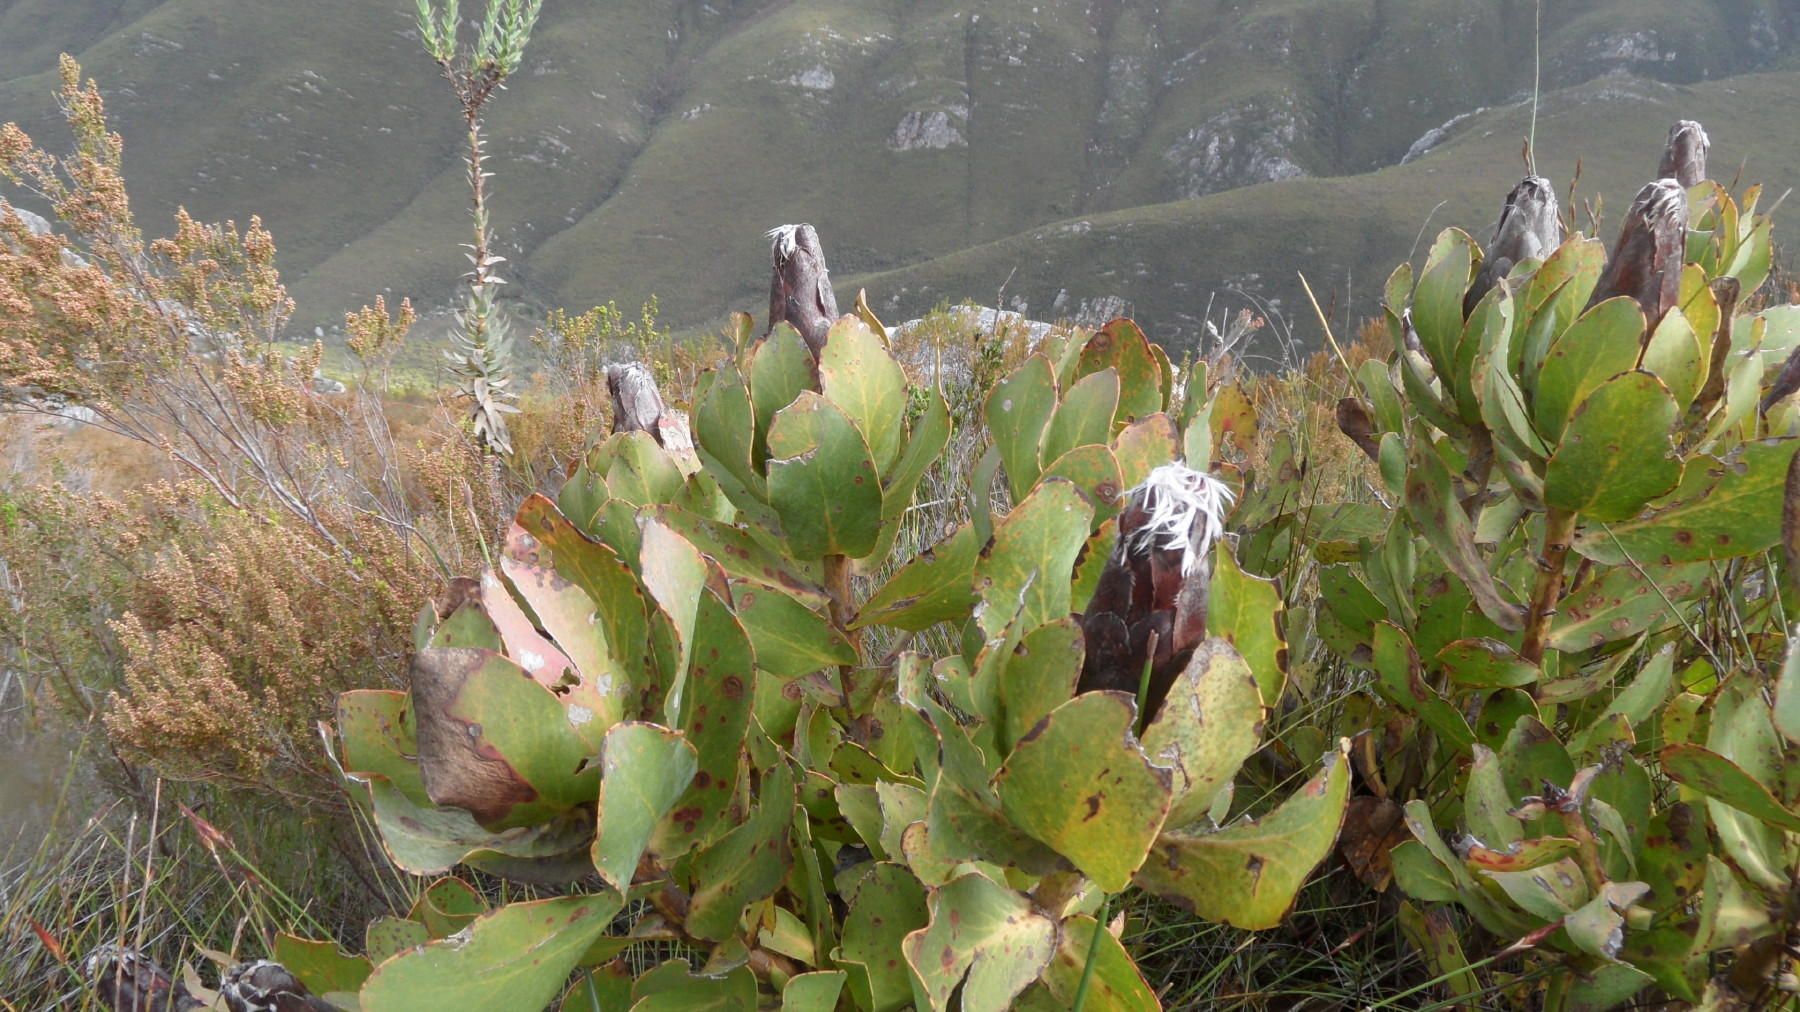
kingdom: Plantae
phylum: Tracheophyta
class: Magnoliopsida
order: Proteales
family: Proteaceae
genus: Protea
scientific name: Protea grandiceps
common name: Red sugarbush
